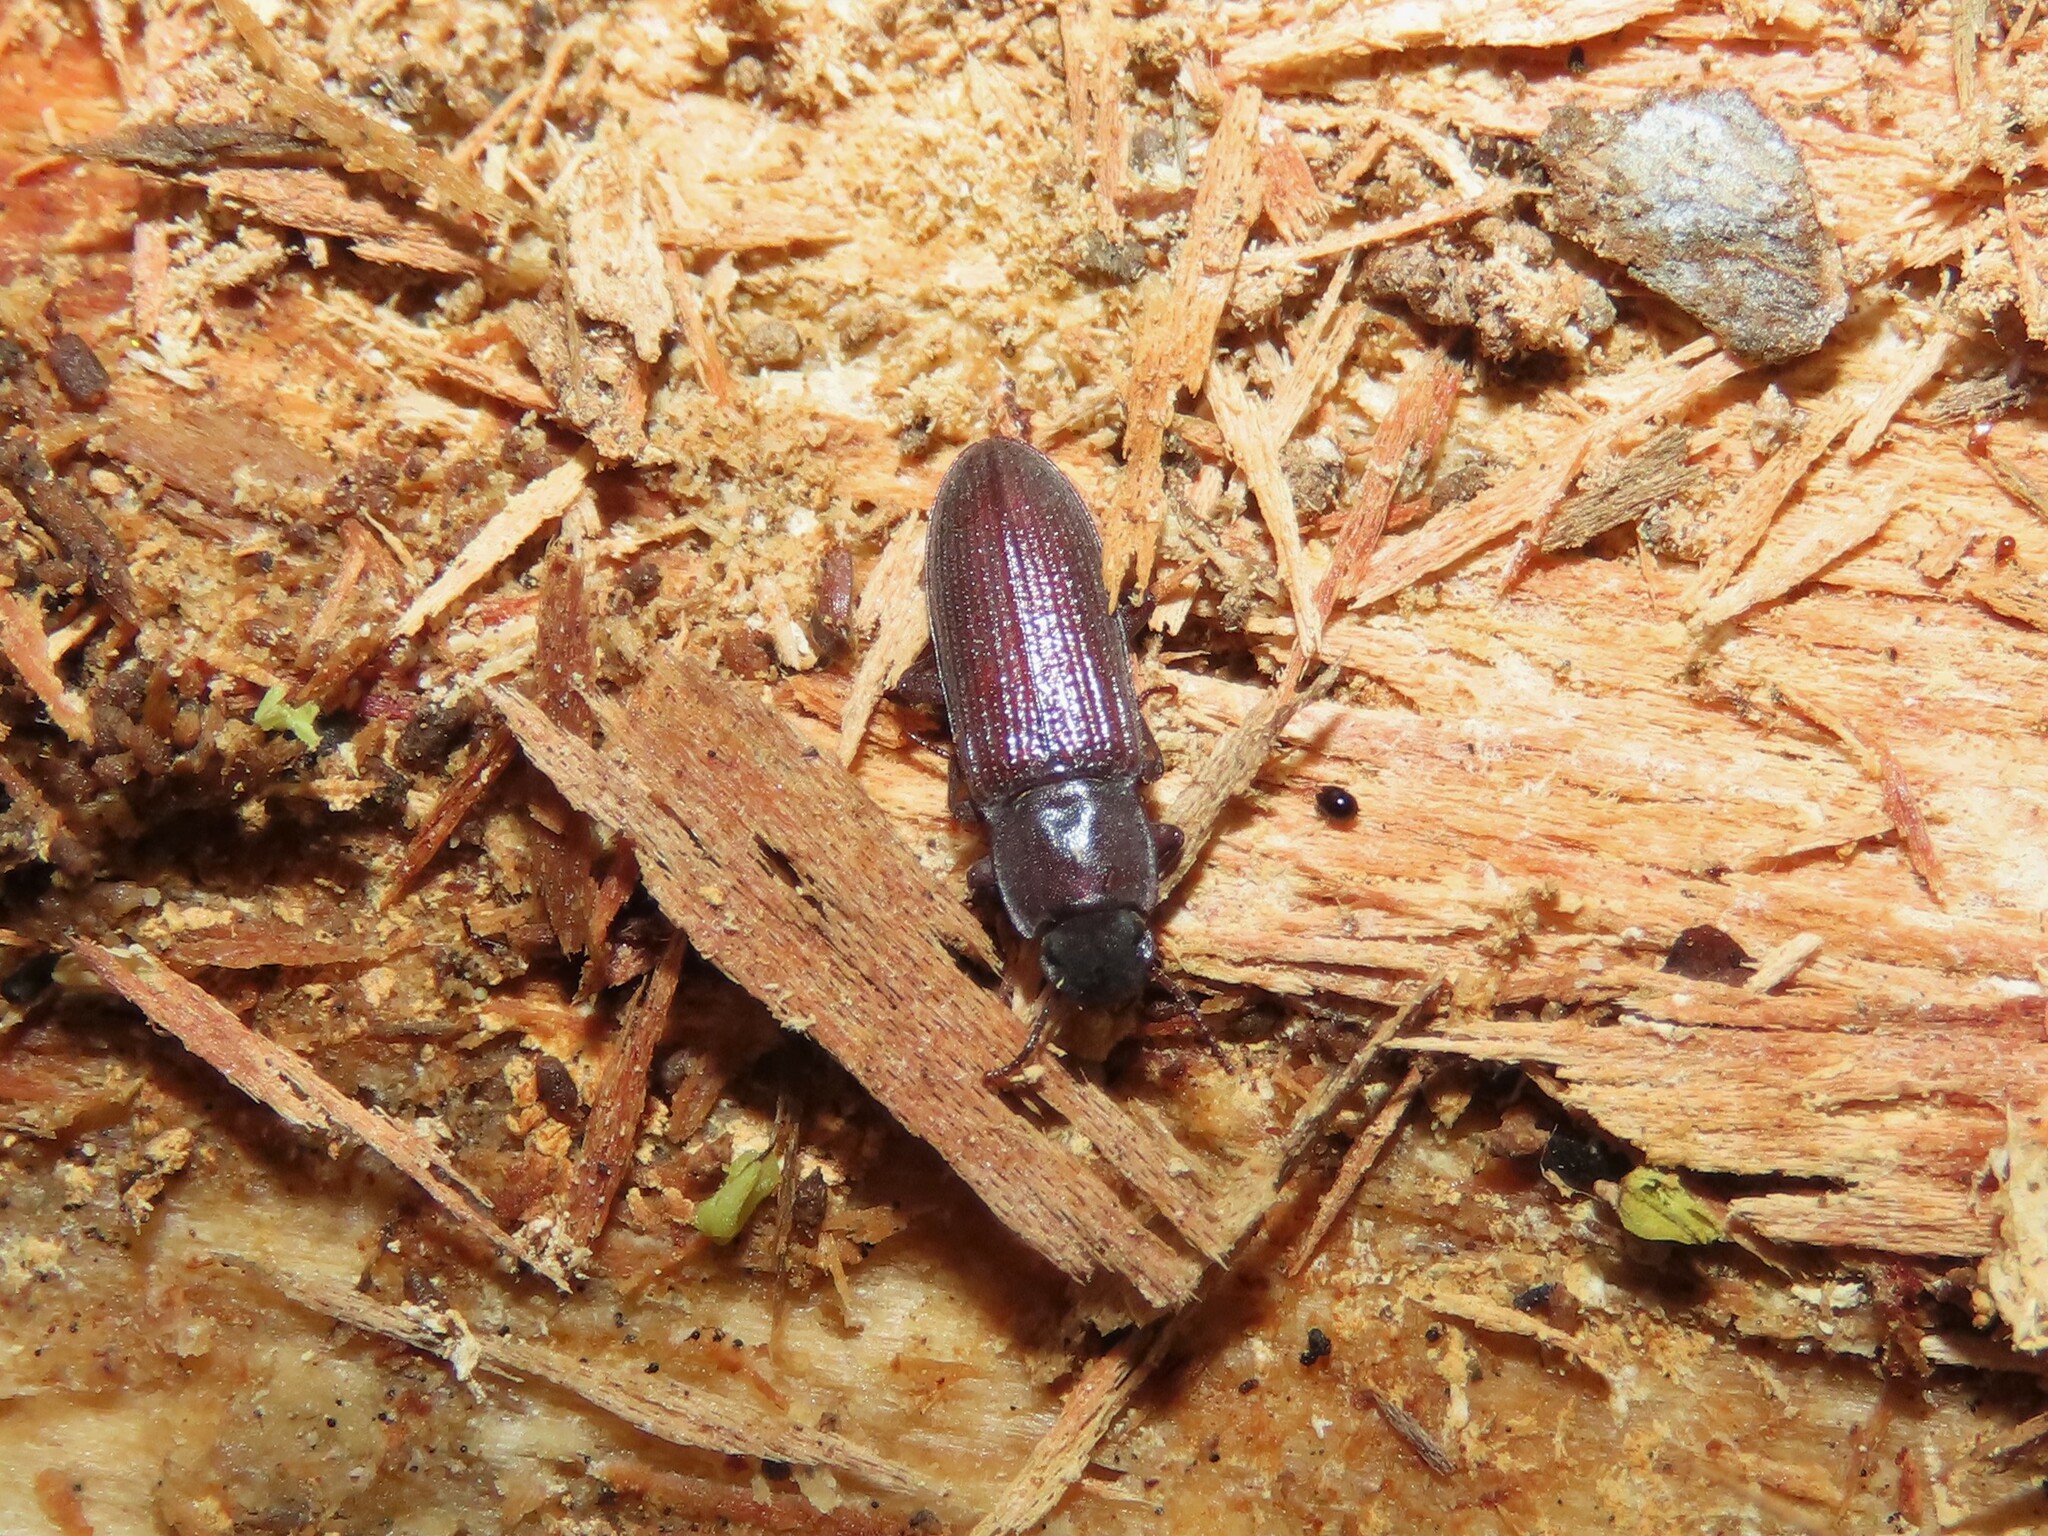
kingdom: Animalia
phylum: Arthropoda
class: Insecta
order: Coleoptera
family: Tenebrionidae
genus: Idiobates
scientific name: Idiobates castaneus
